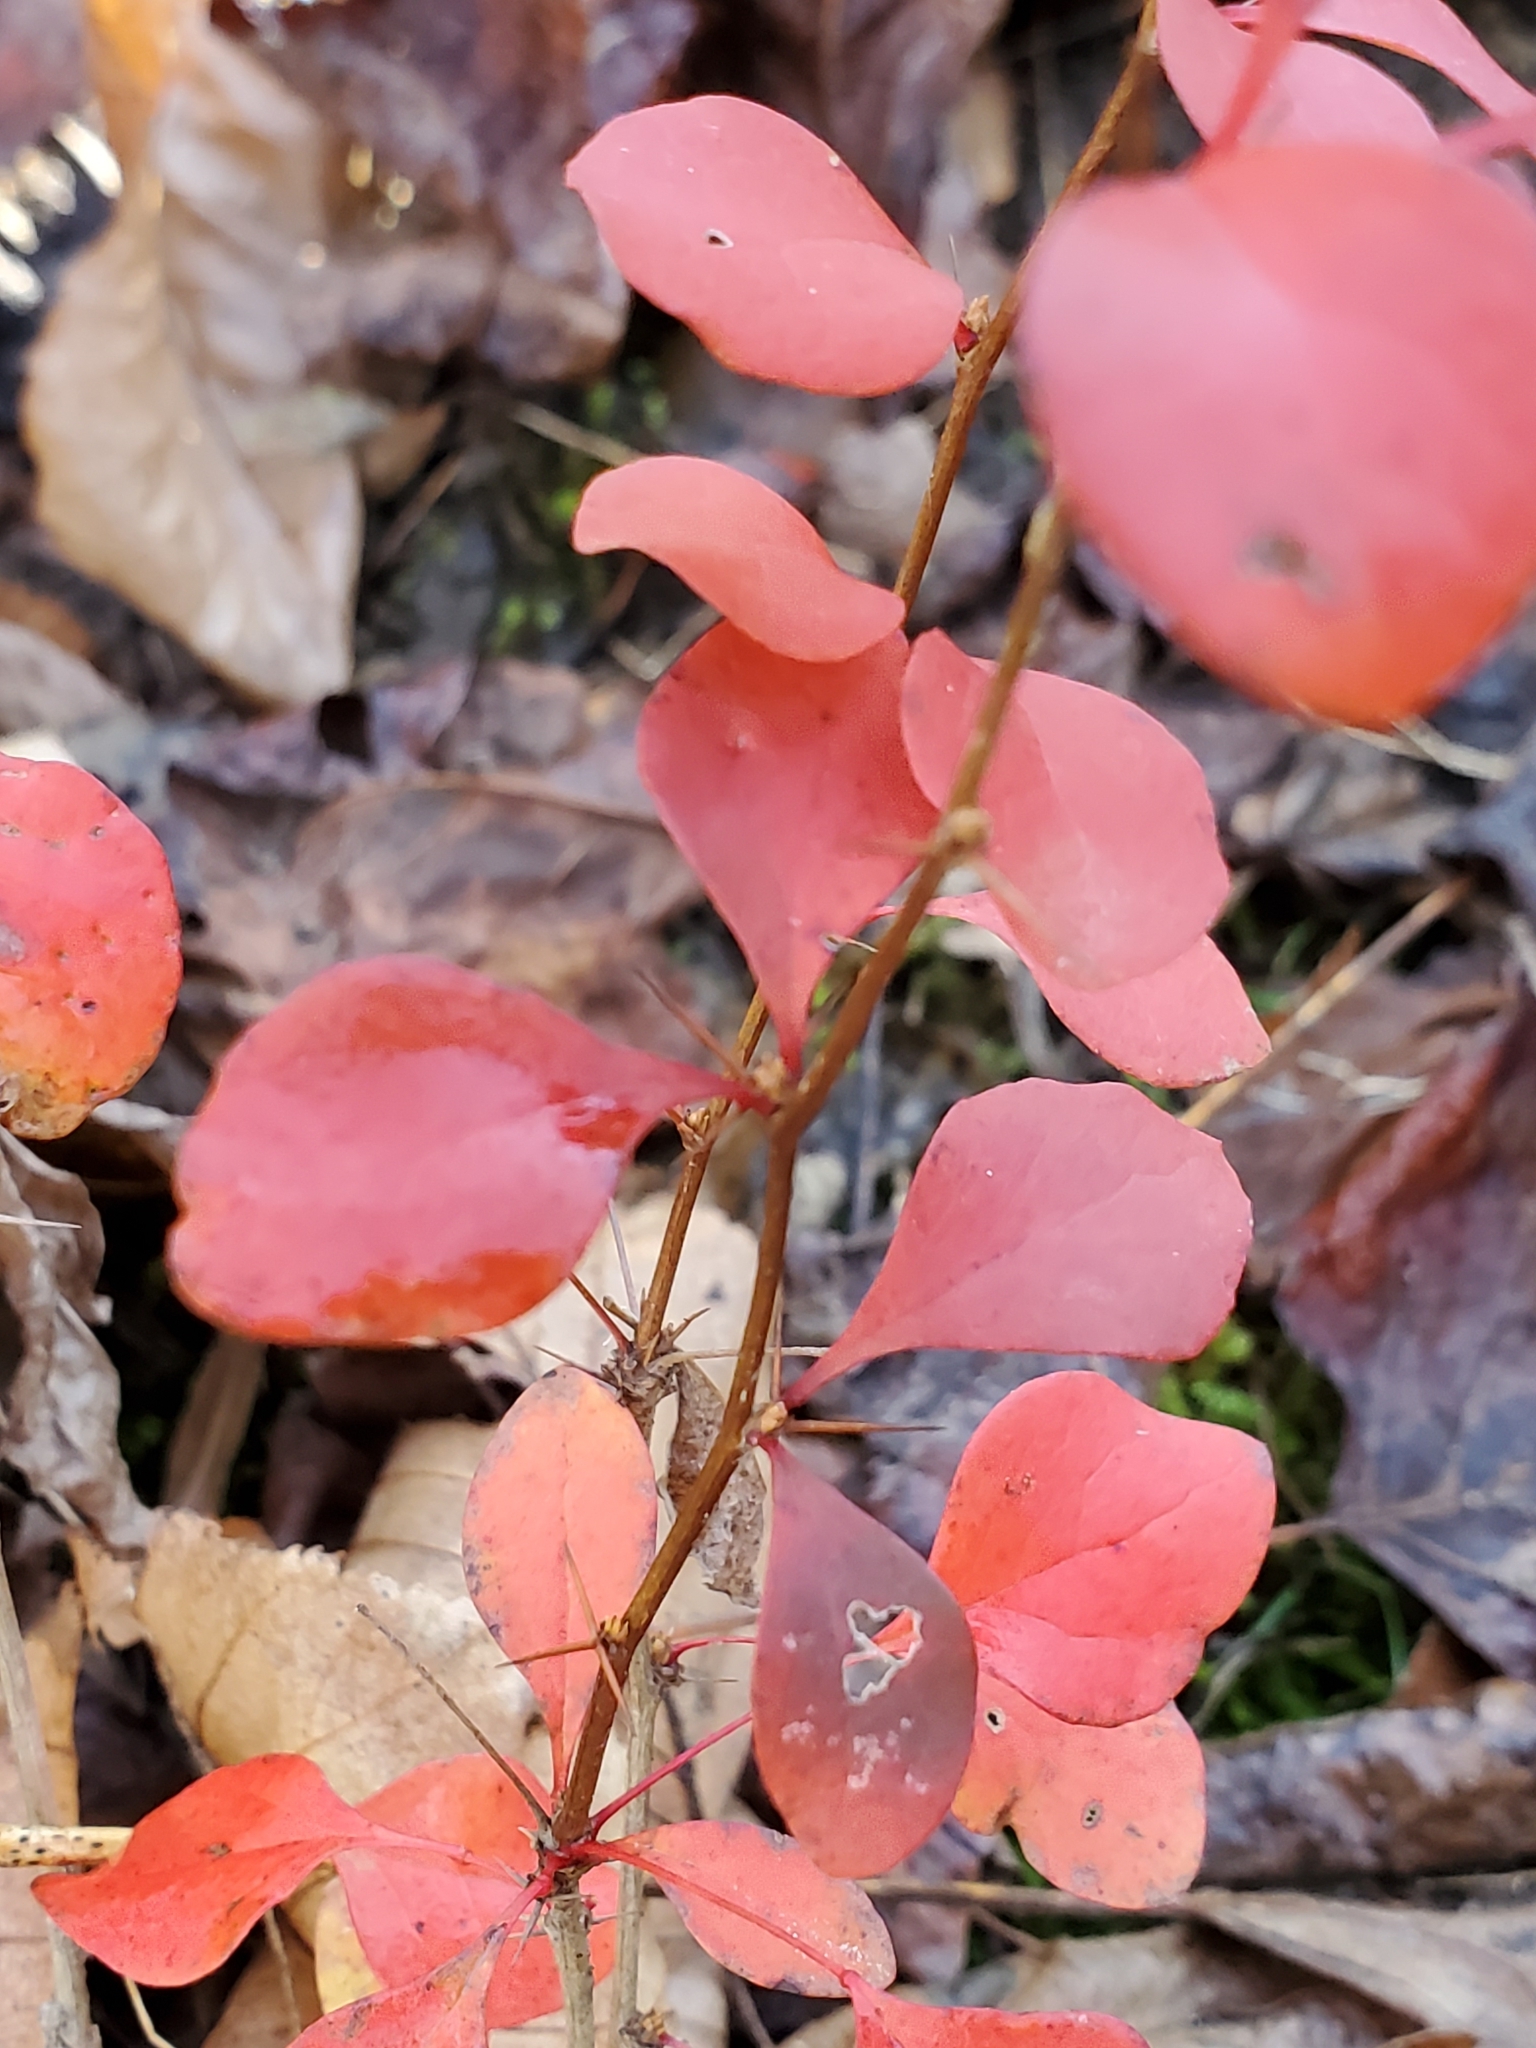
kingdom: Plantae
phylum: Tracheophyta
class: Magnoliopsida
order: Ranunculales
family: Berberidaceae
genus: Berberis
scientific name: Berberis thunbergii
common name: Japanese barberry
